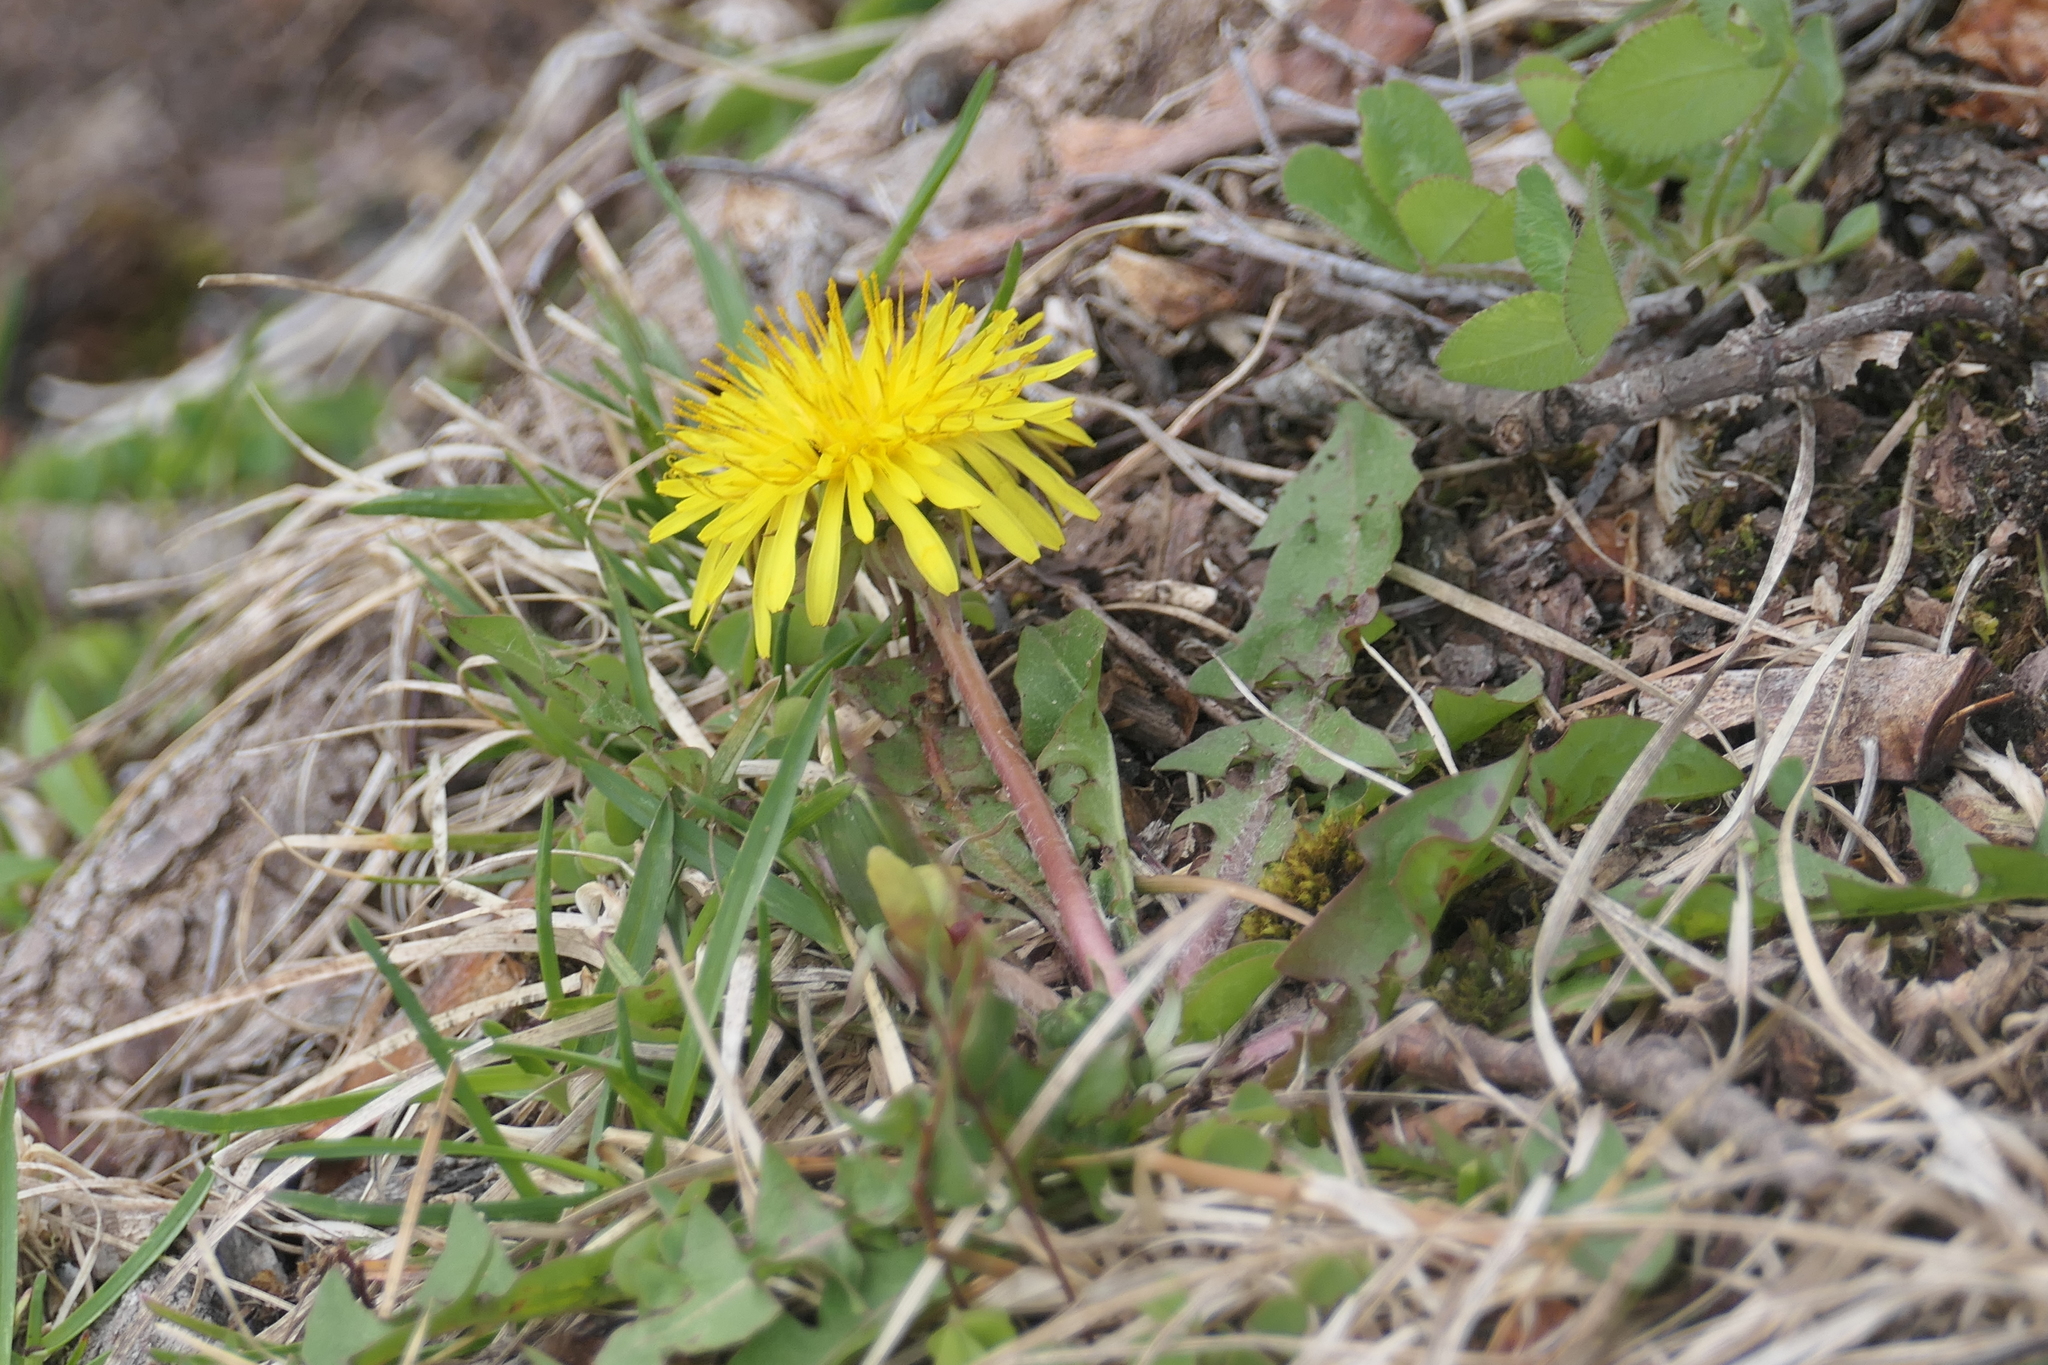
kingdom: Plantae
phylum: Tracheophyta
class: Magnoliopsida
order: Asterales
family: Asteraceae
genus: Taraxacum
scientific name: Taraxacum officinale
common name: Common dandelion
